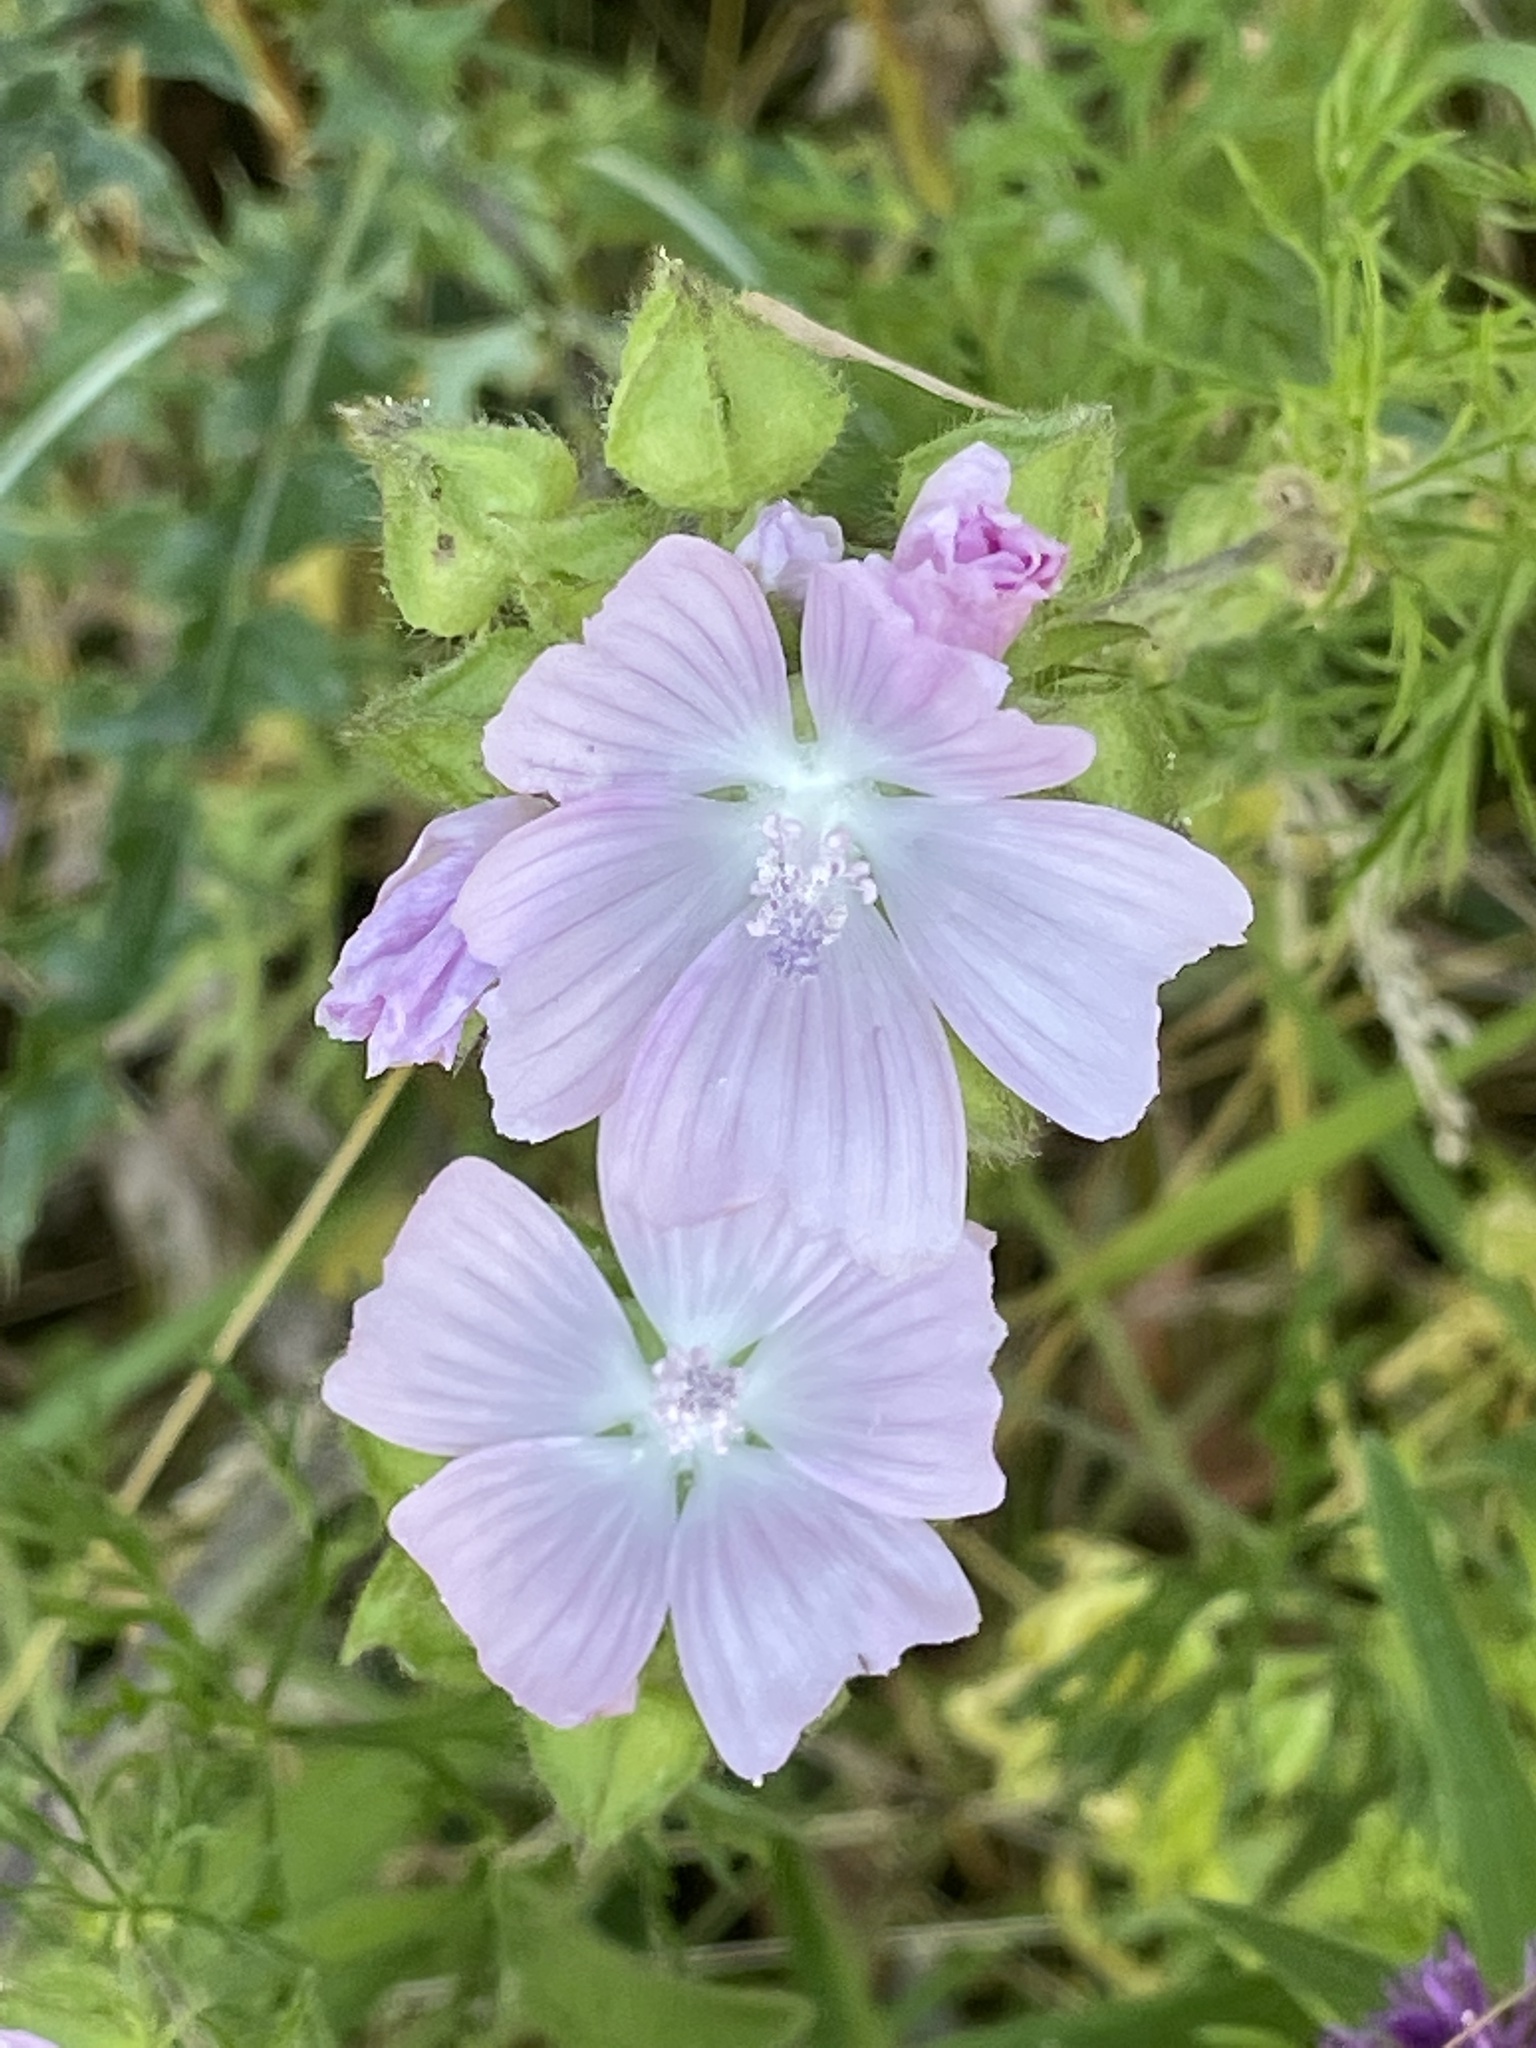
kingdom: Plantae
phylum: Tracheophyta
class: Magnoliopsida
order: Malvales
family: Malvaceae
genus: Malva
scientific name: Malva moschata
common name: Musk mallow
